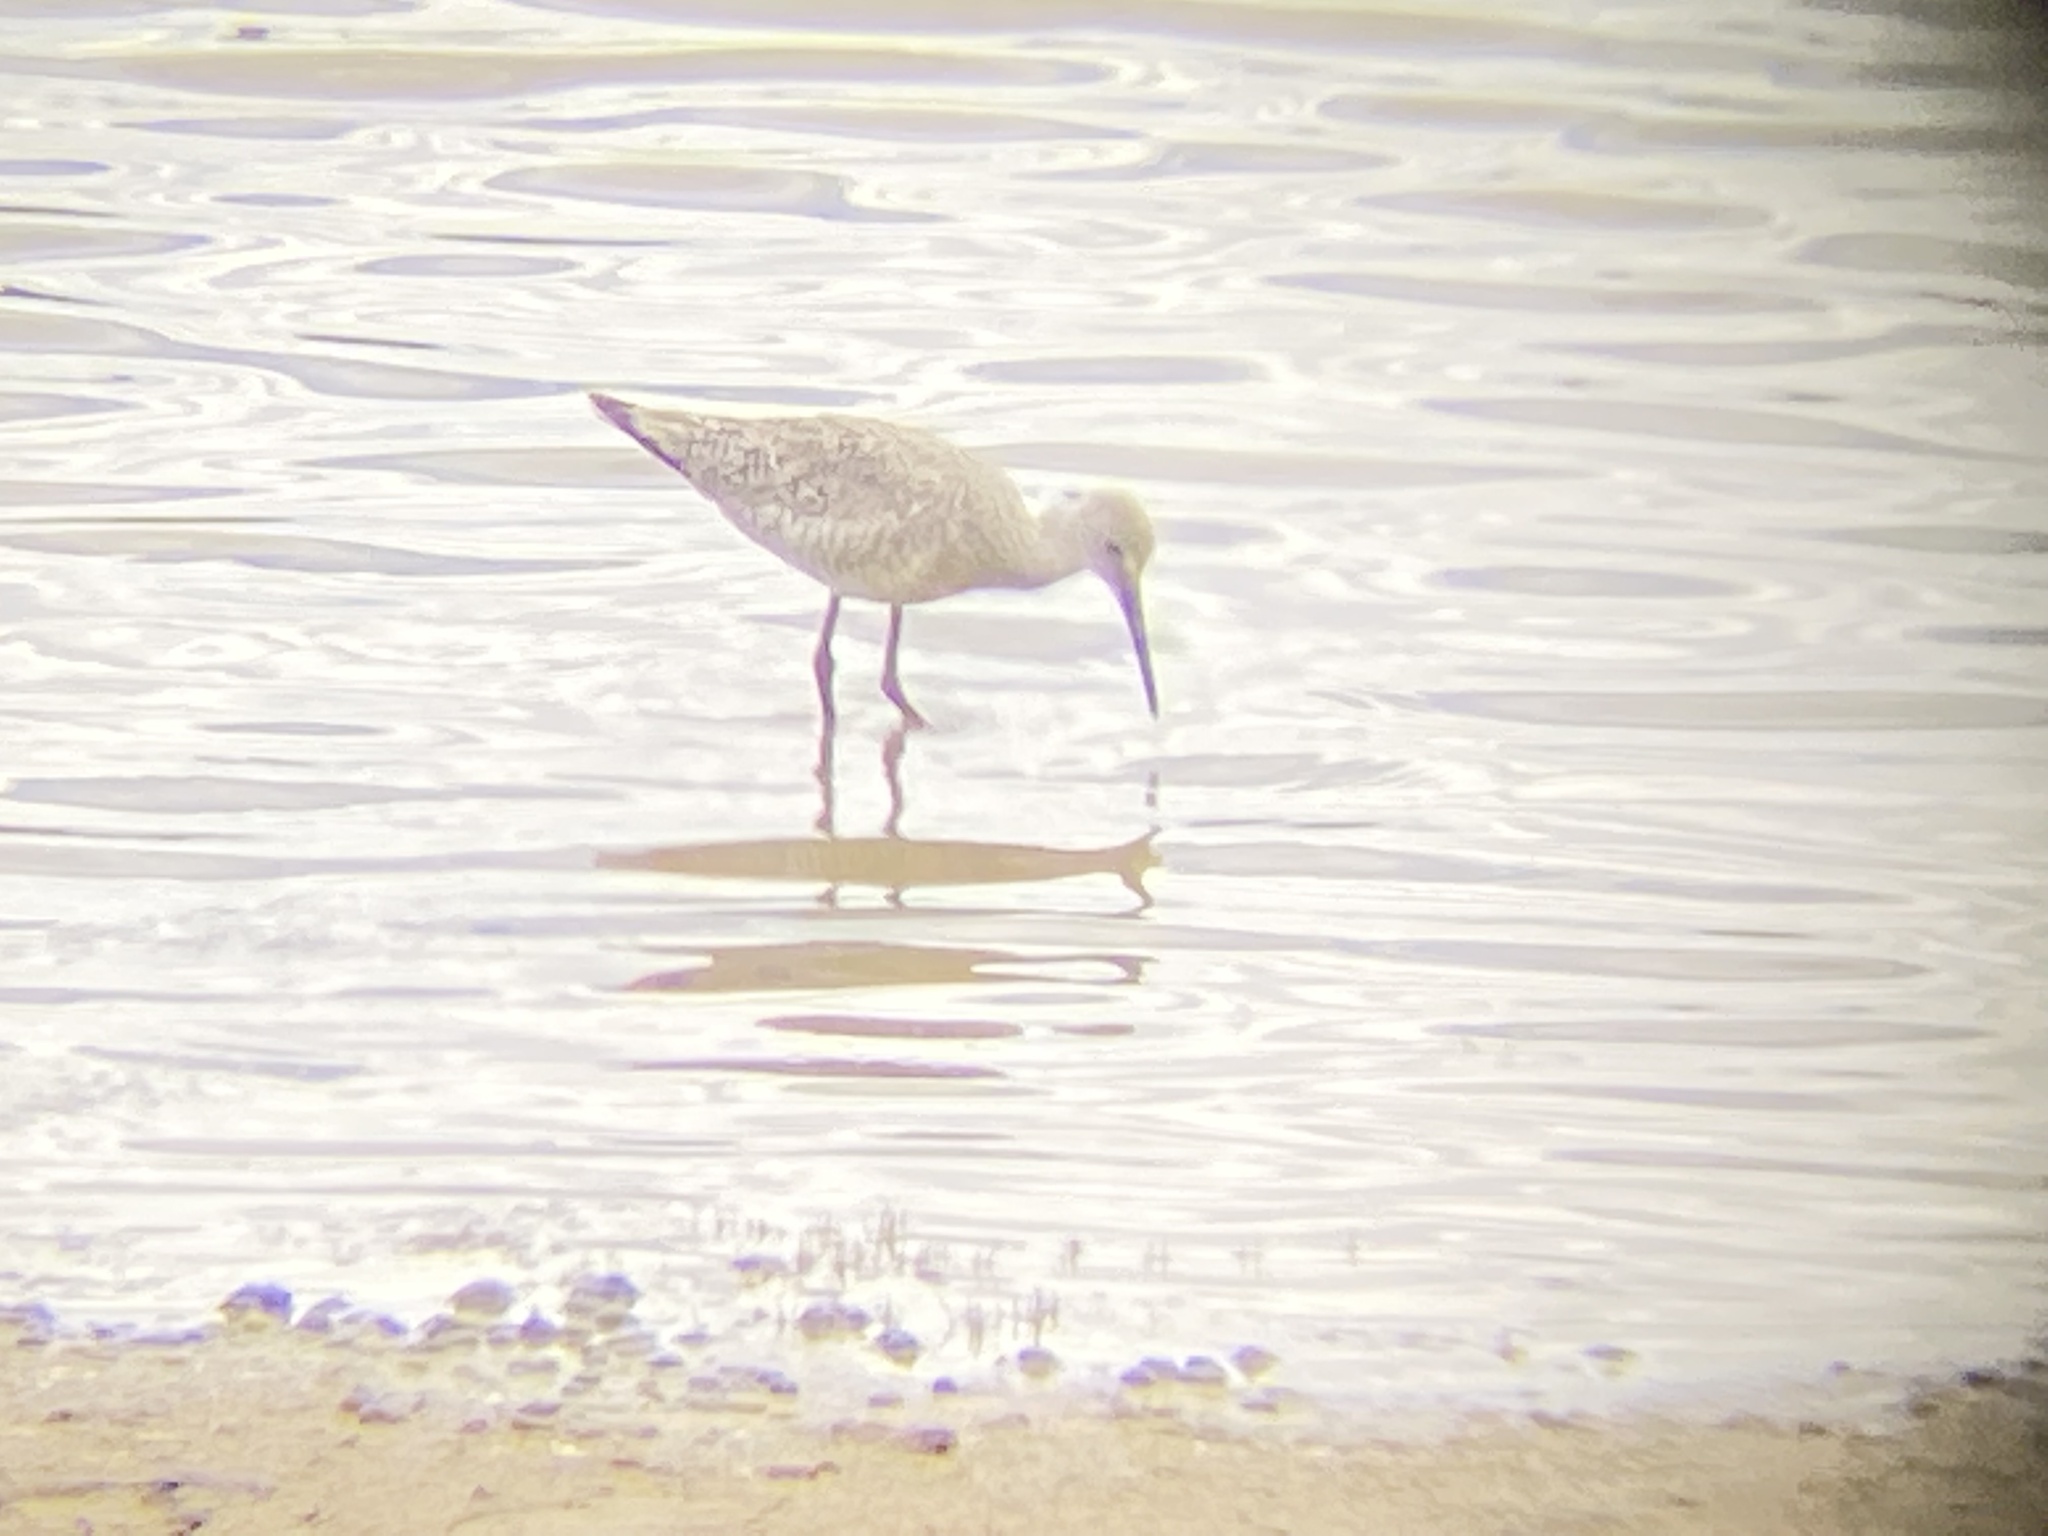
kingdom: Animalia
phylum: Chordata
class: Aves
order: Charadriiformes
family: Scolopacidae
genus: Tringa
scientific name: Tringa semipalmata
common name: Willet
